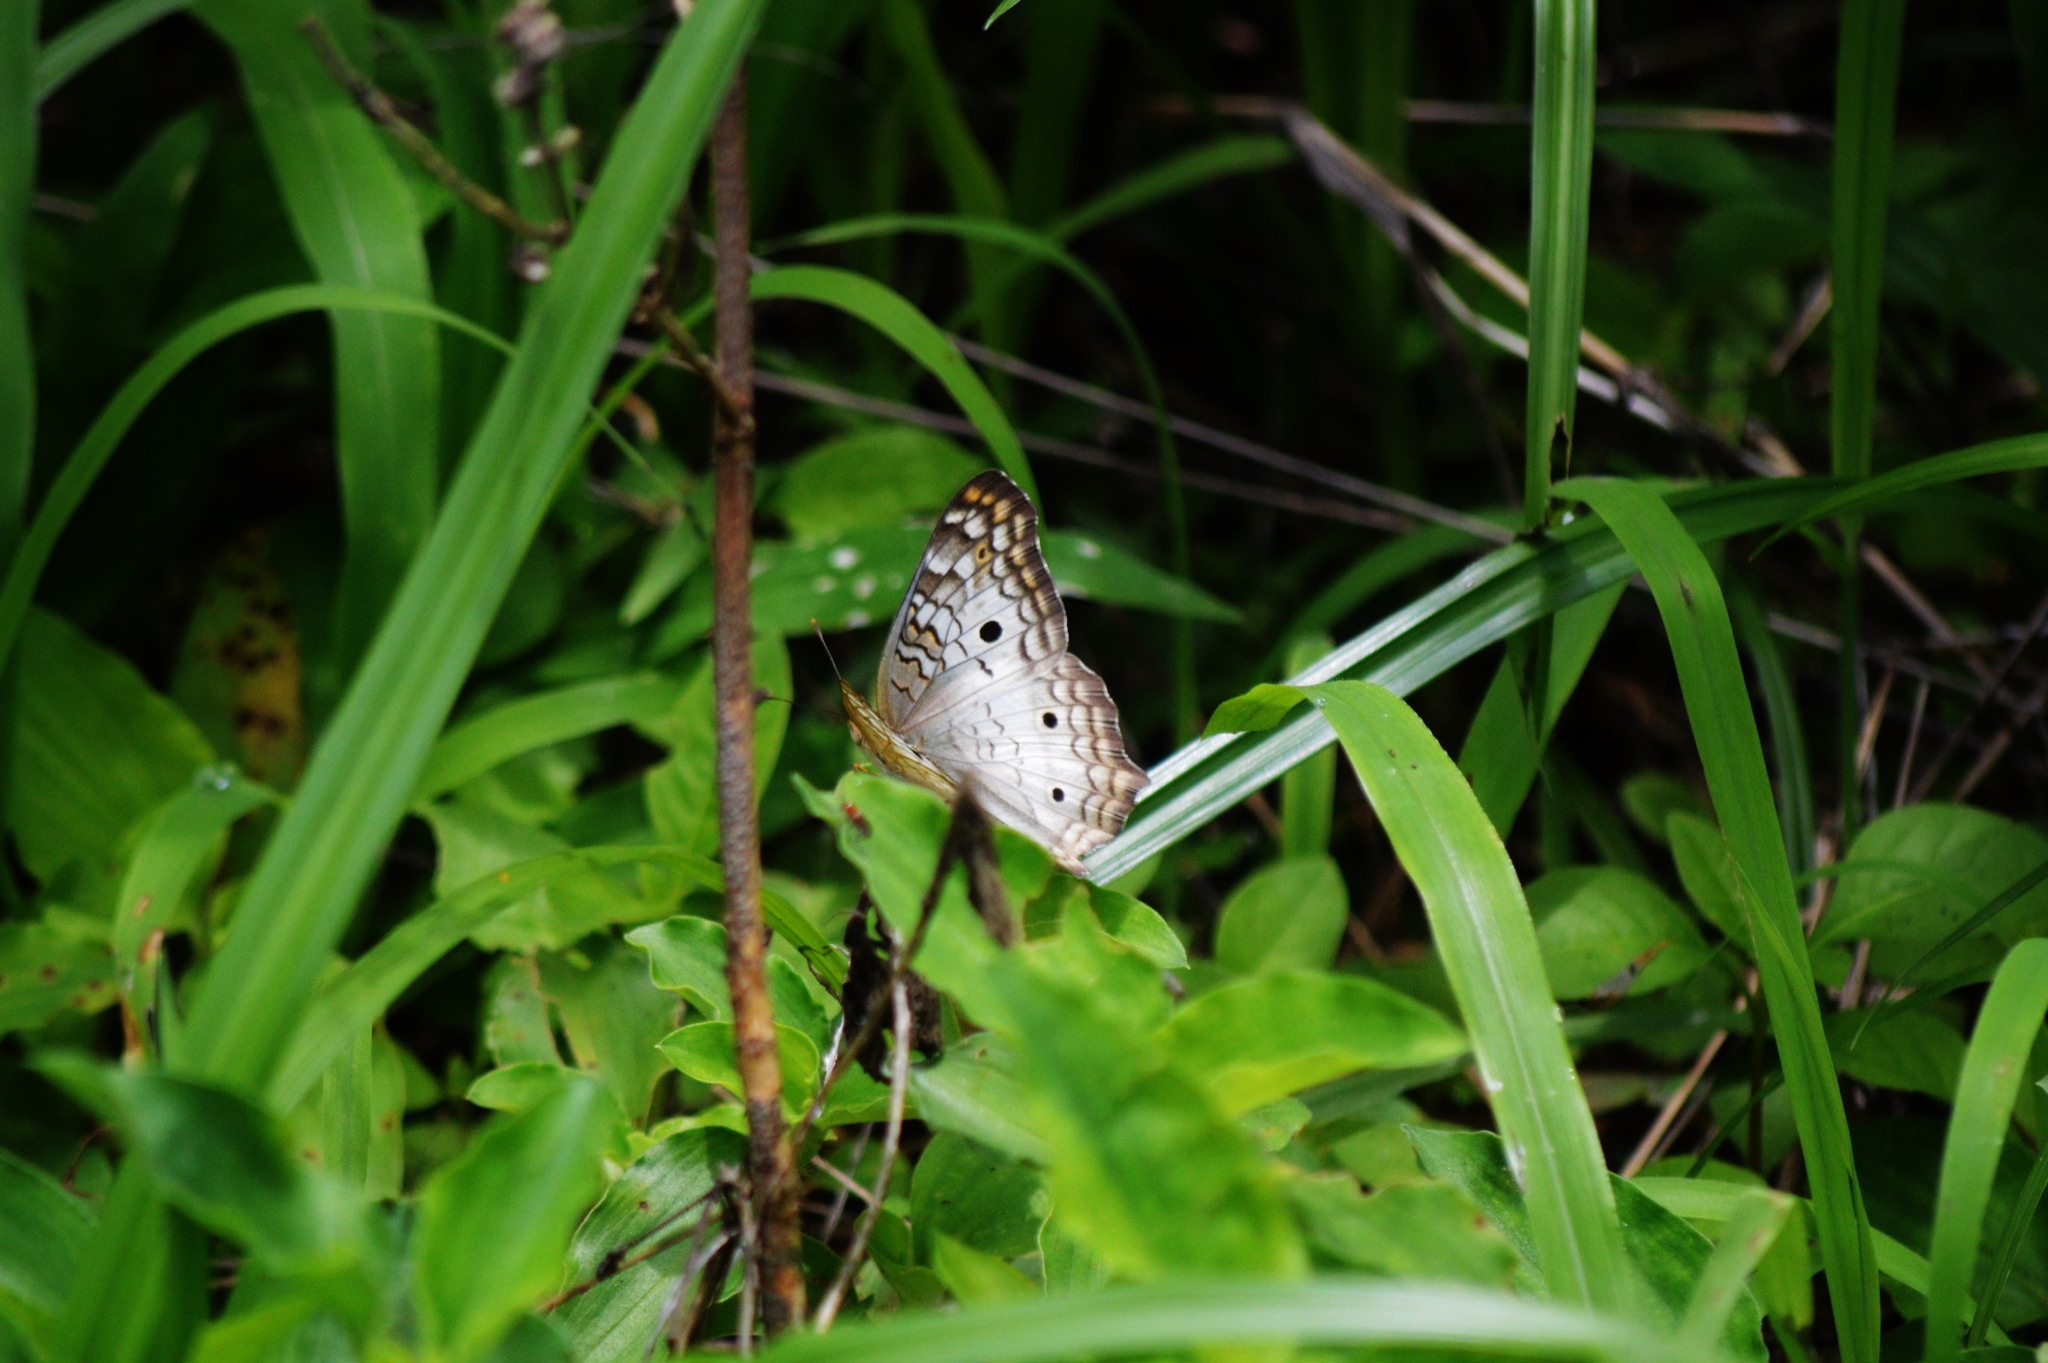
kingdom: Animalia
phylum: Arthropoda
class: Insecta
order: Lepidoptera
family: Nymphalidae
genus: Anartia
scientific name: Anartia jatrophae
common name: White peacock
